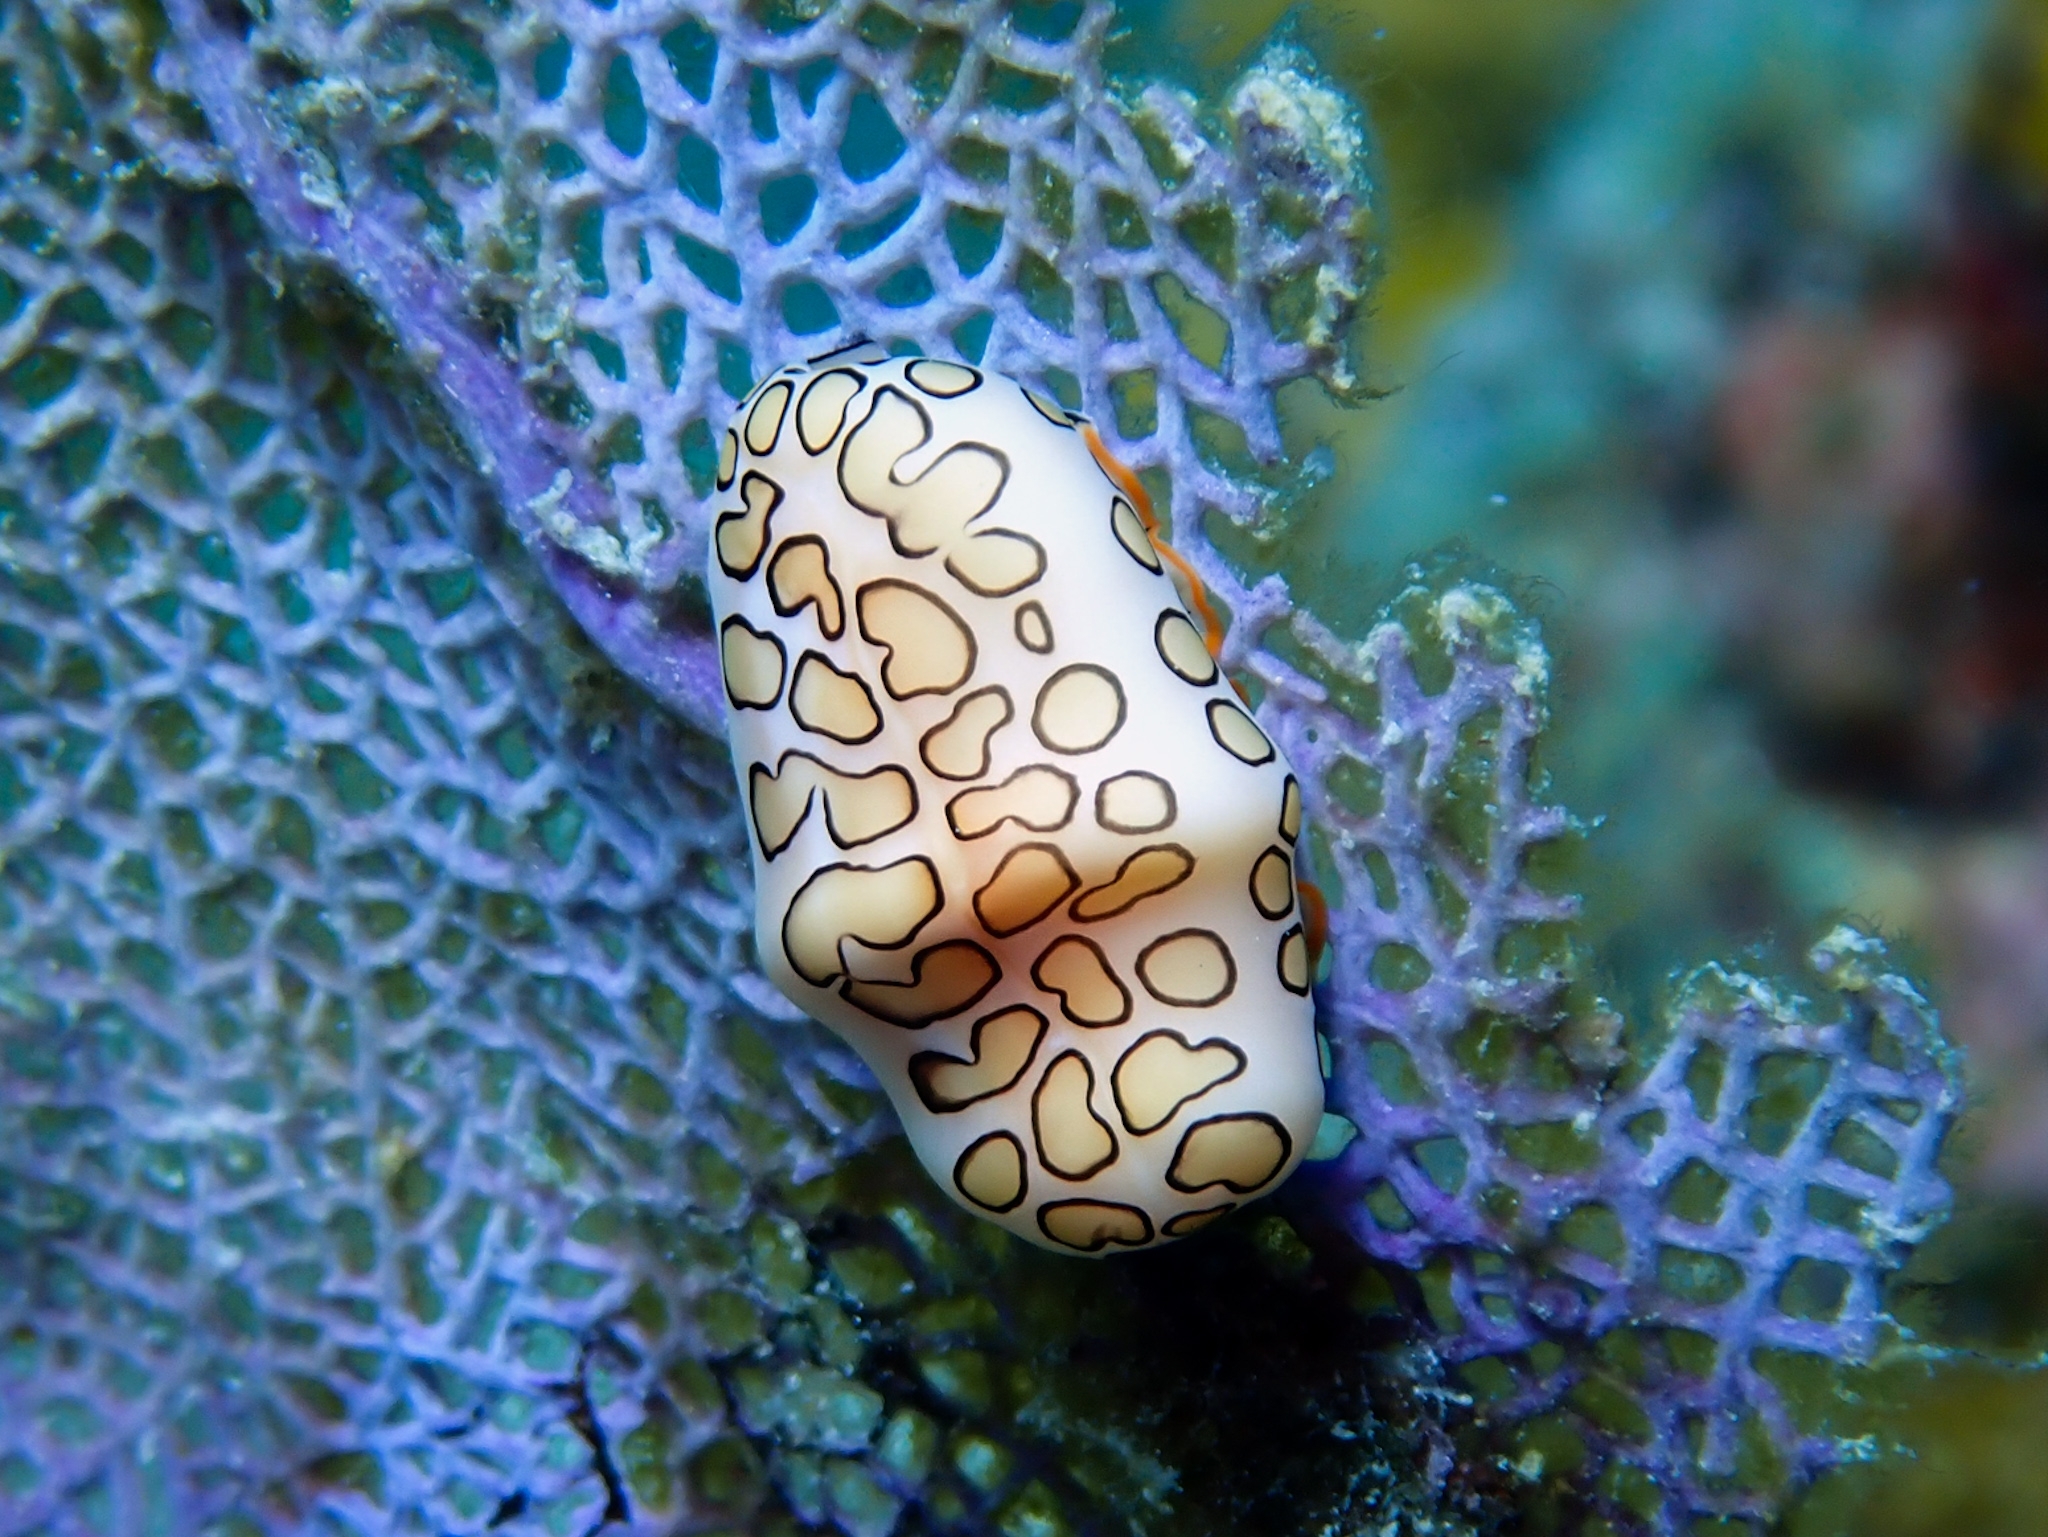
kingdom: Animalia
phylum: Mollusca
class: Gastropoda
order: Littorinimorpha
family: Ovulidae
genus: Cyphoma
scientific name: Cyphoma gibbosum
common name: Flamingo tongue
